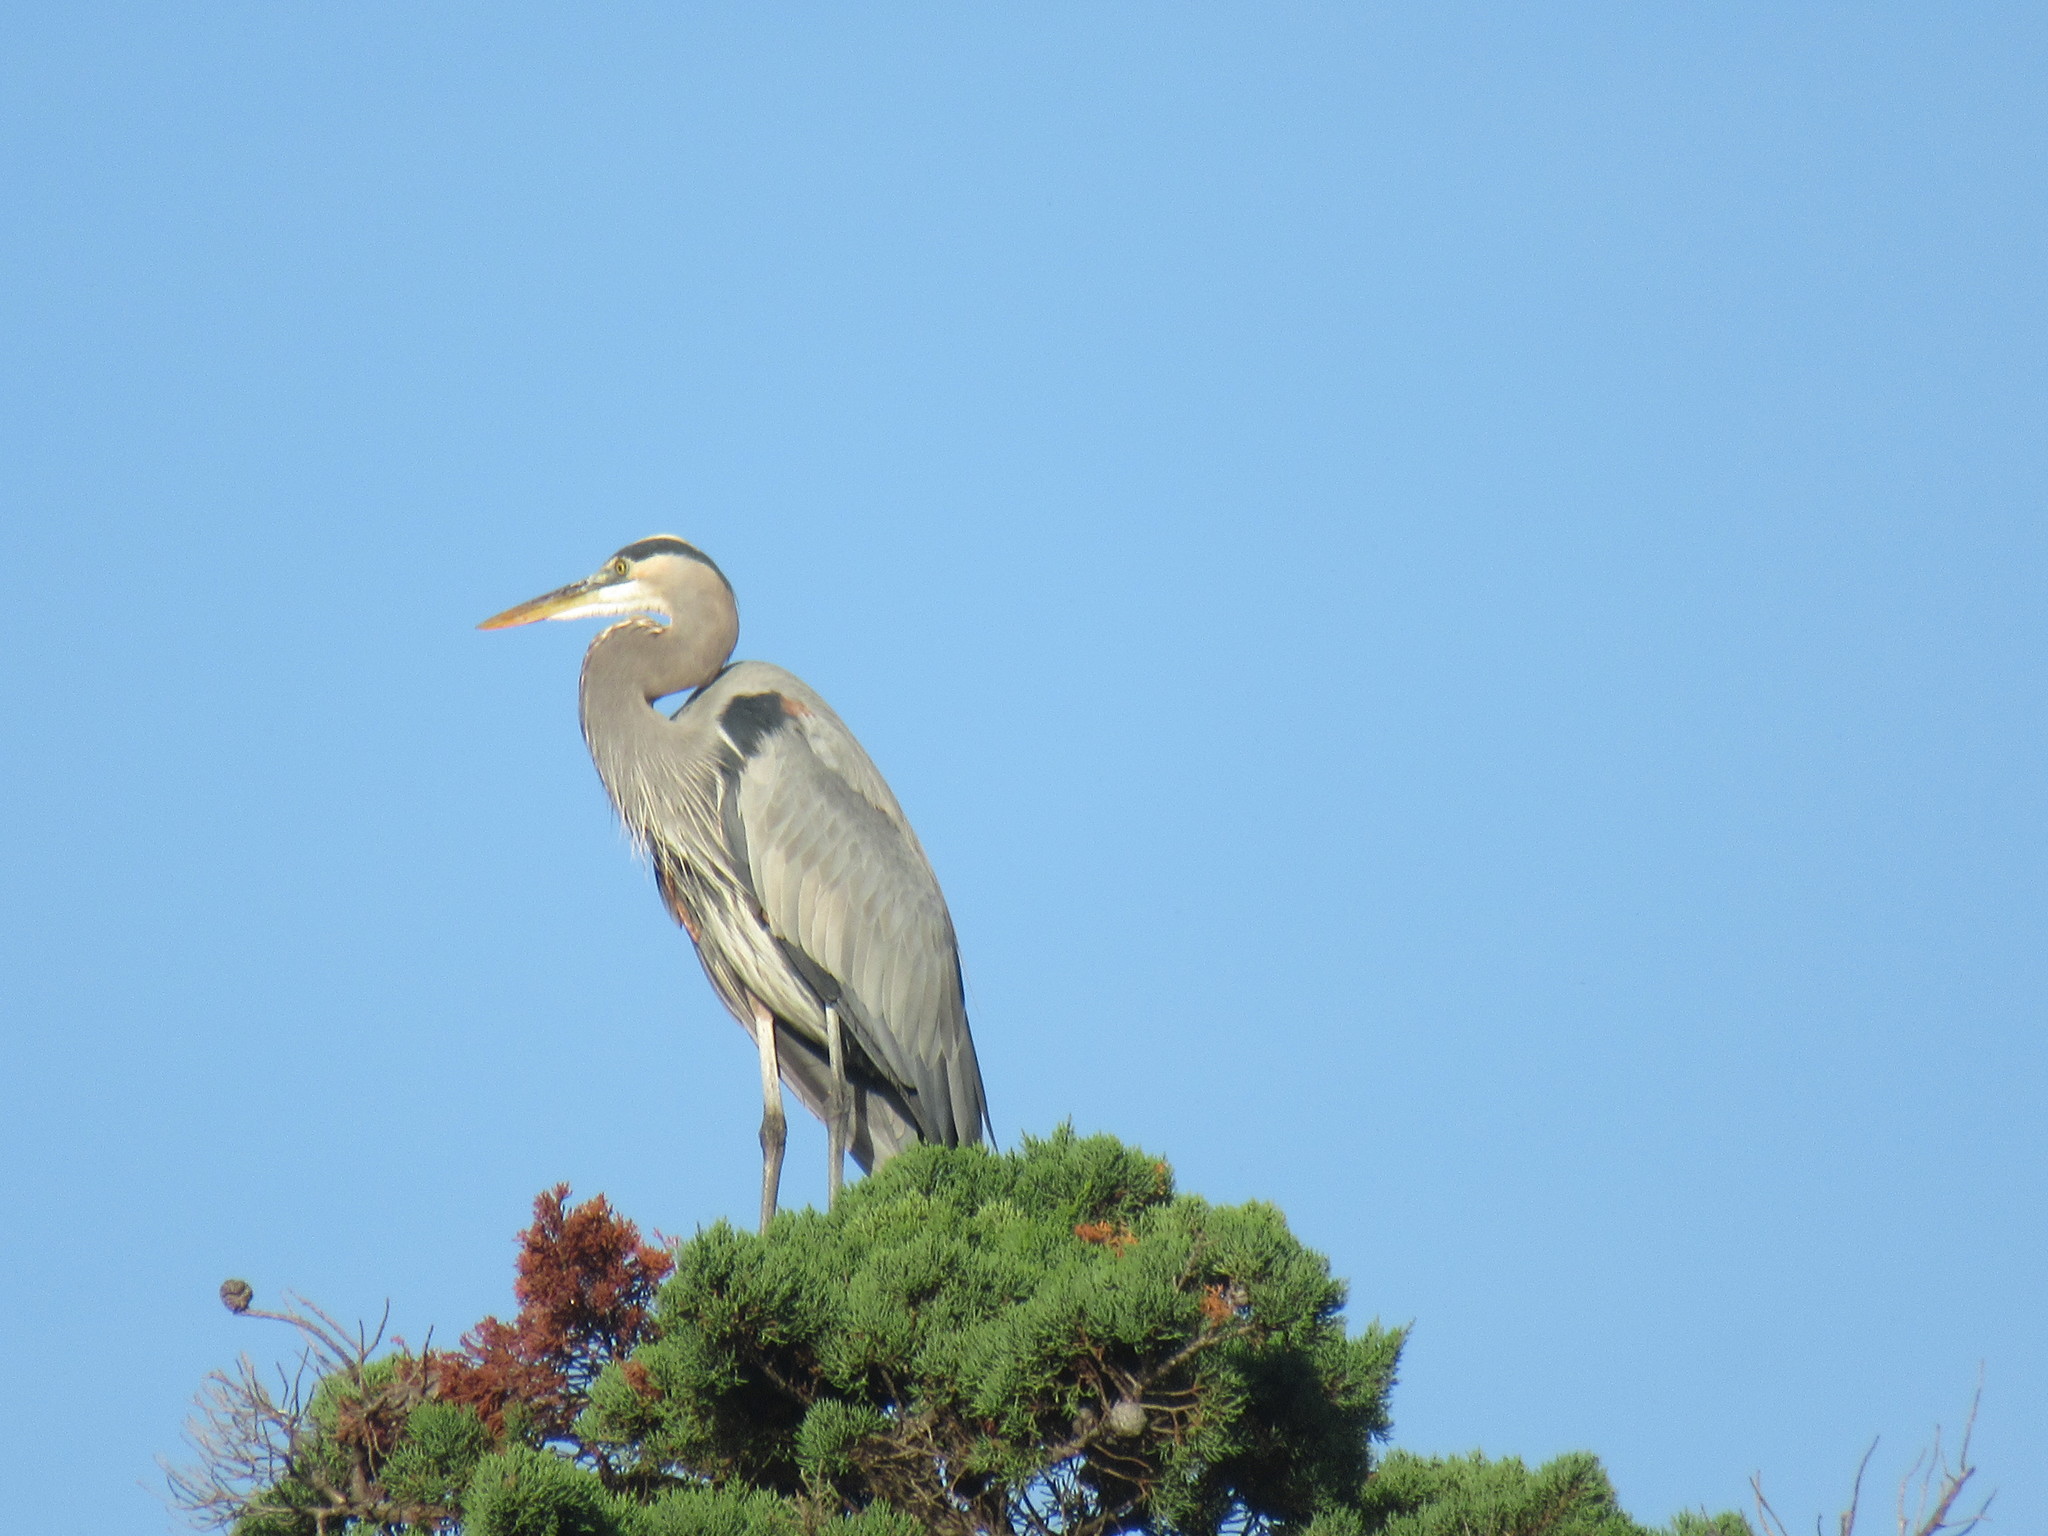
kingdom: Animalia
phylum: Chordata
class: Aves
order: Pelecaniformes
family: Ardeidae
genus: Ardea
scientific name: Ardea herodias
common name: Great blue heron
